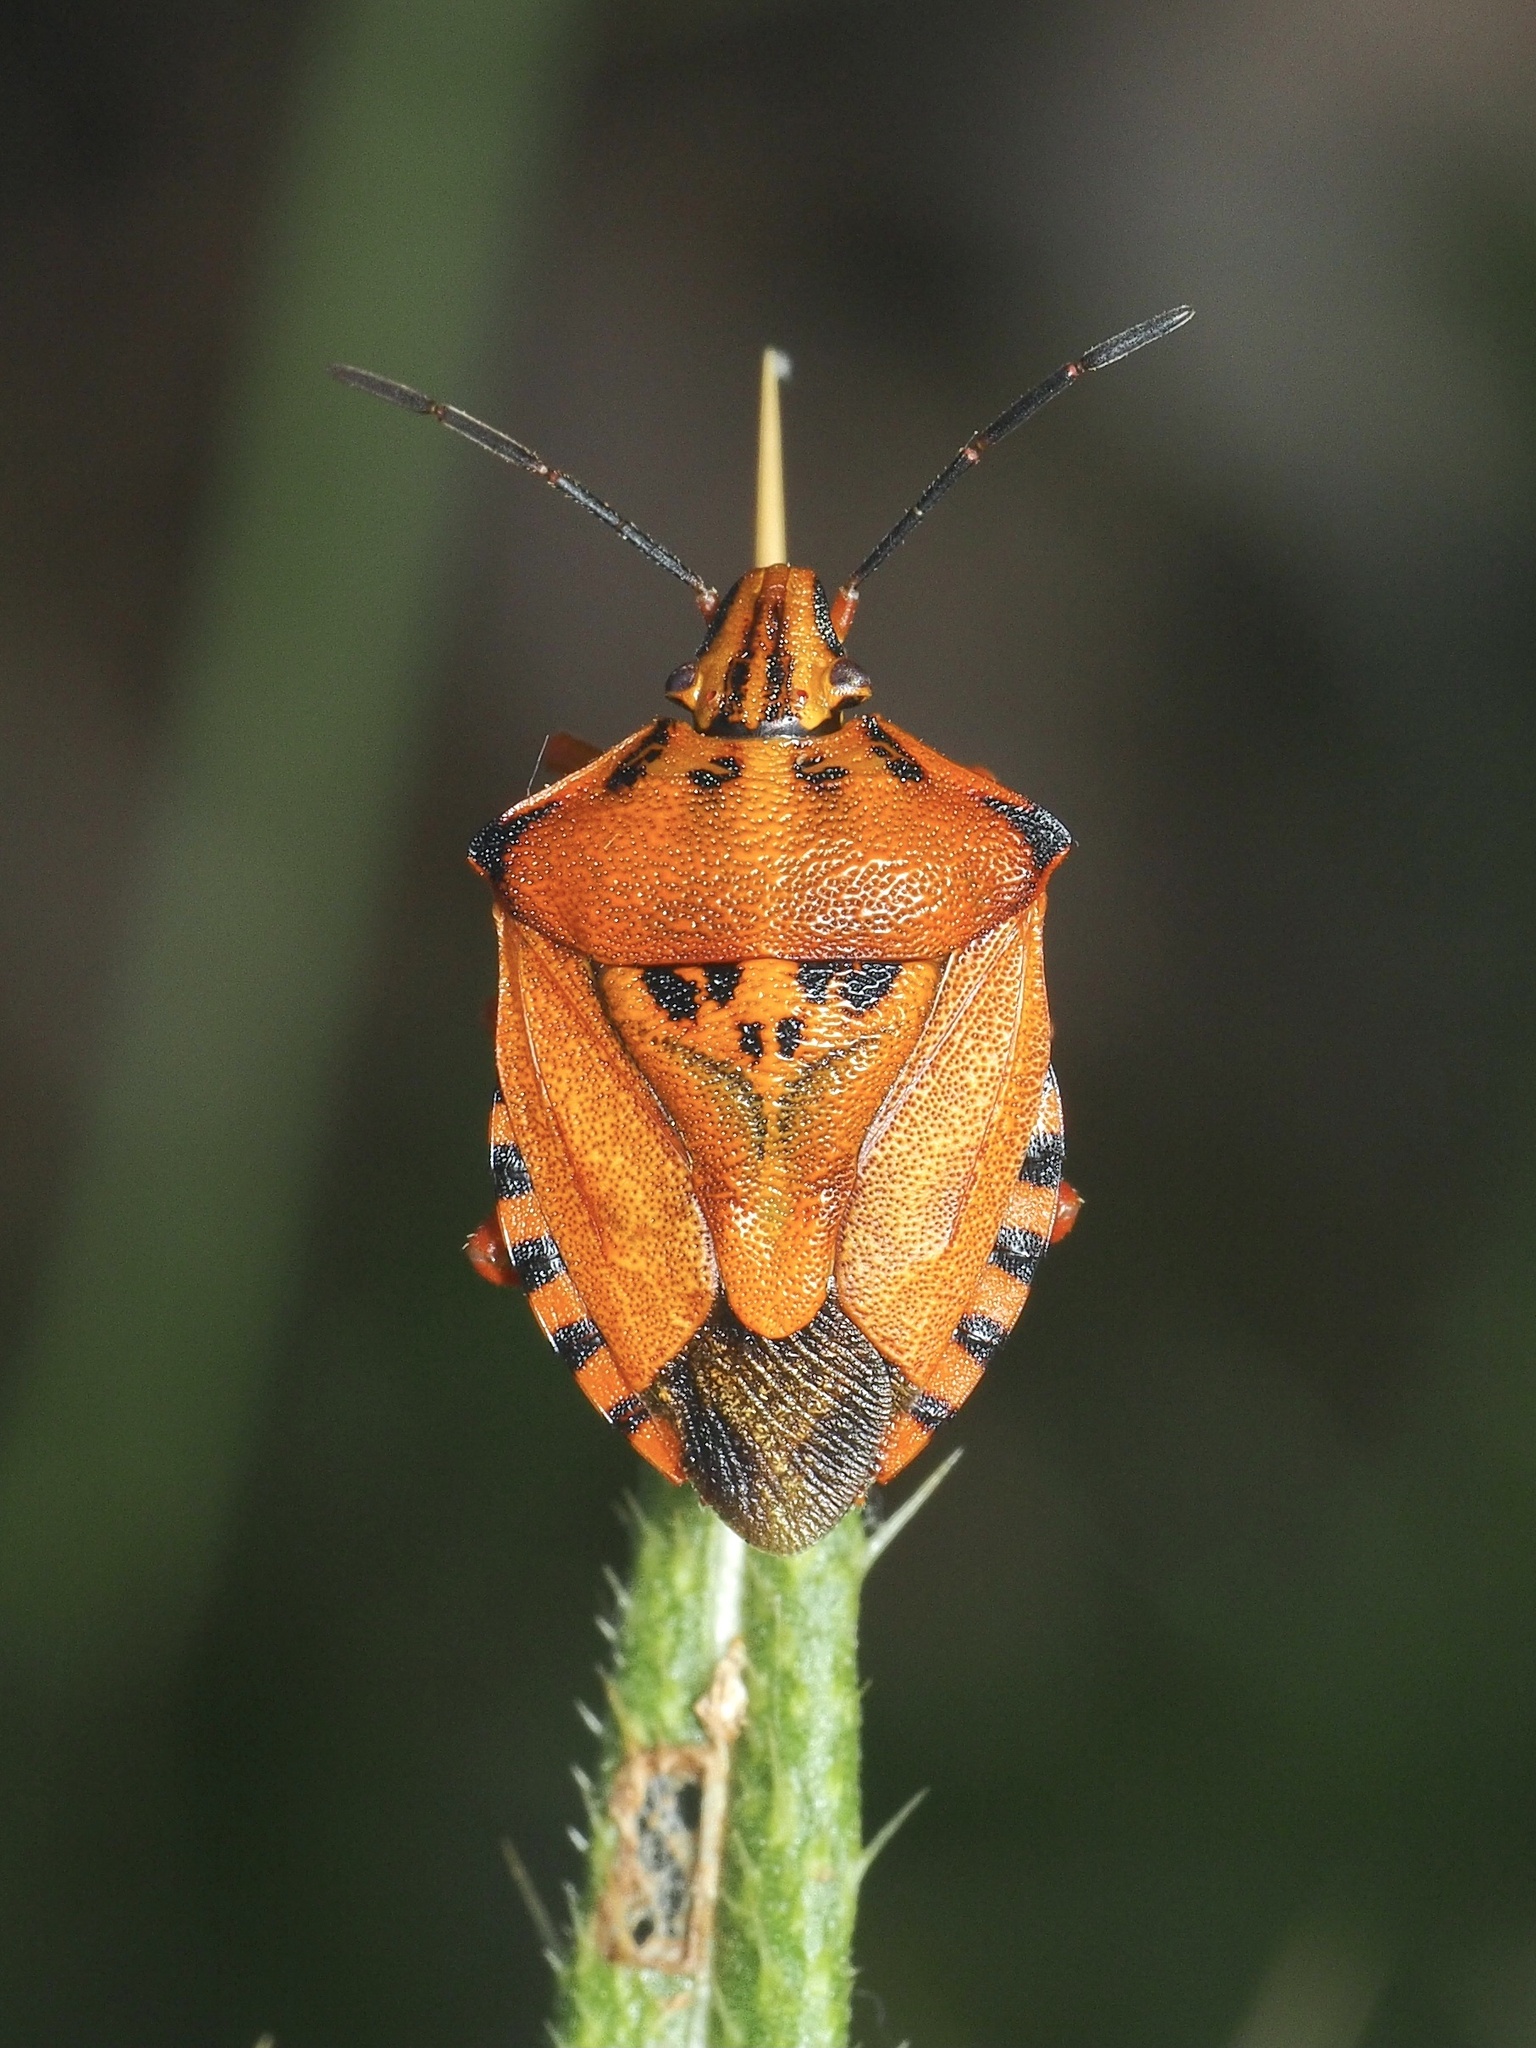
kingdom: Animalia
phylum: Arthropoda
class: Insecta
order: Hemiptera
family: Pentatomidae
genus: Carpocoris
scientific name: Carpocoris mediterraneus
